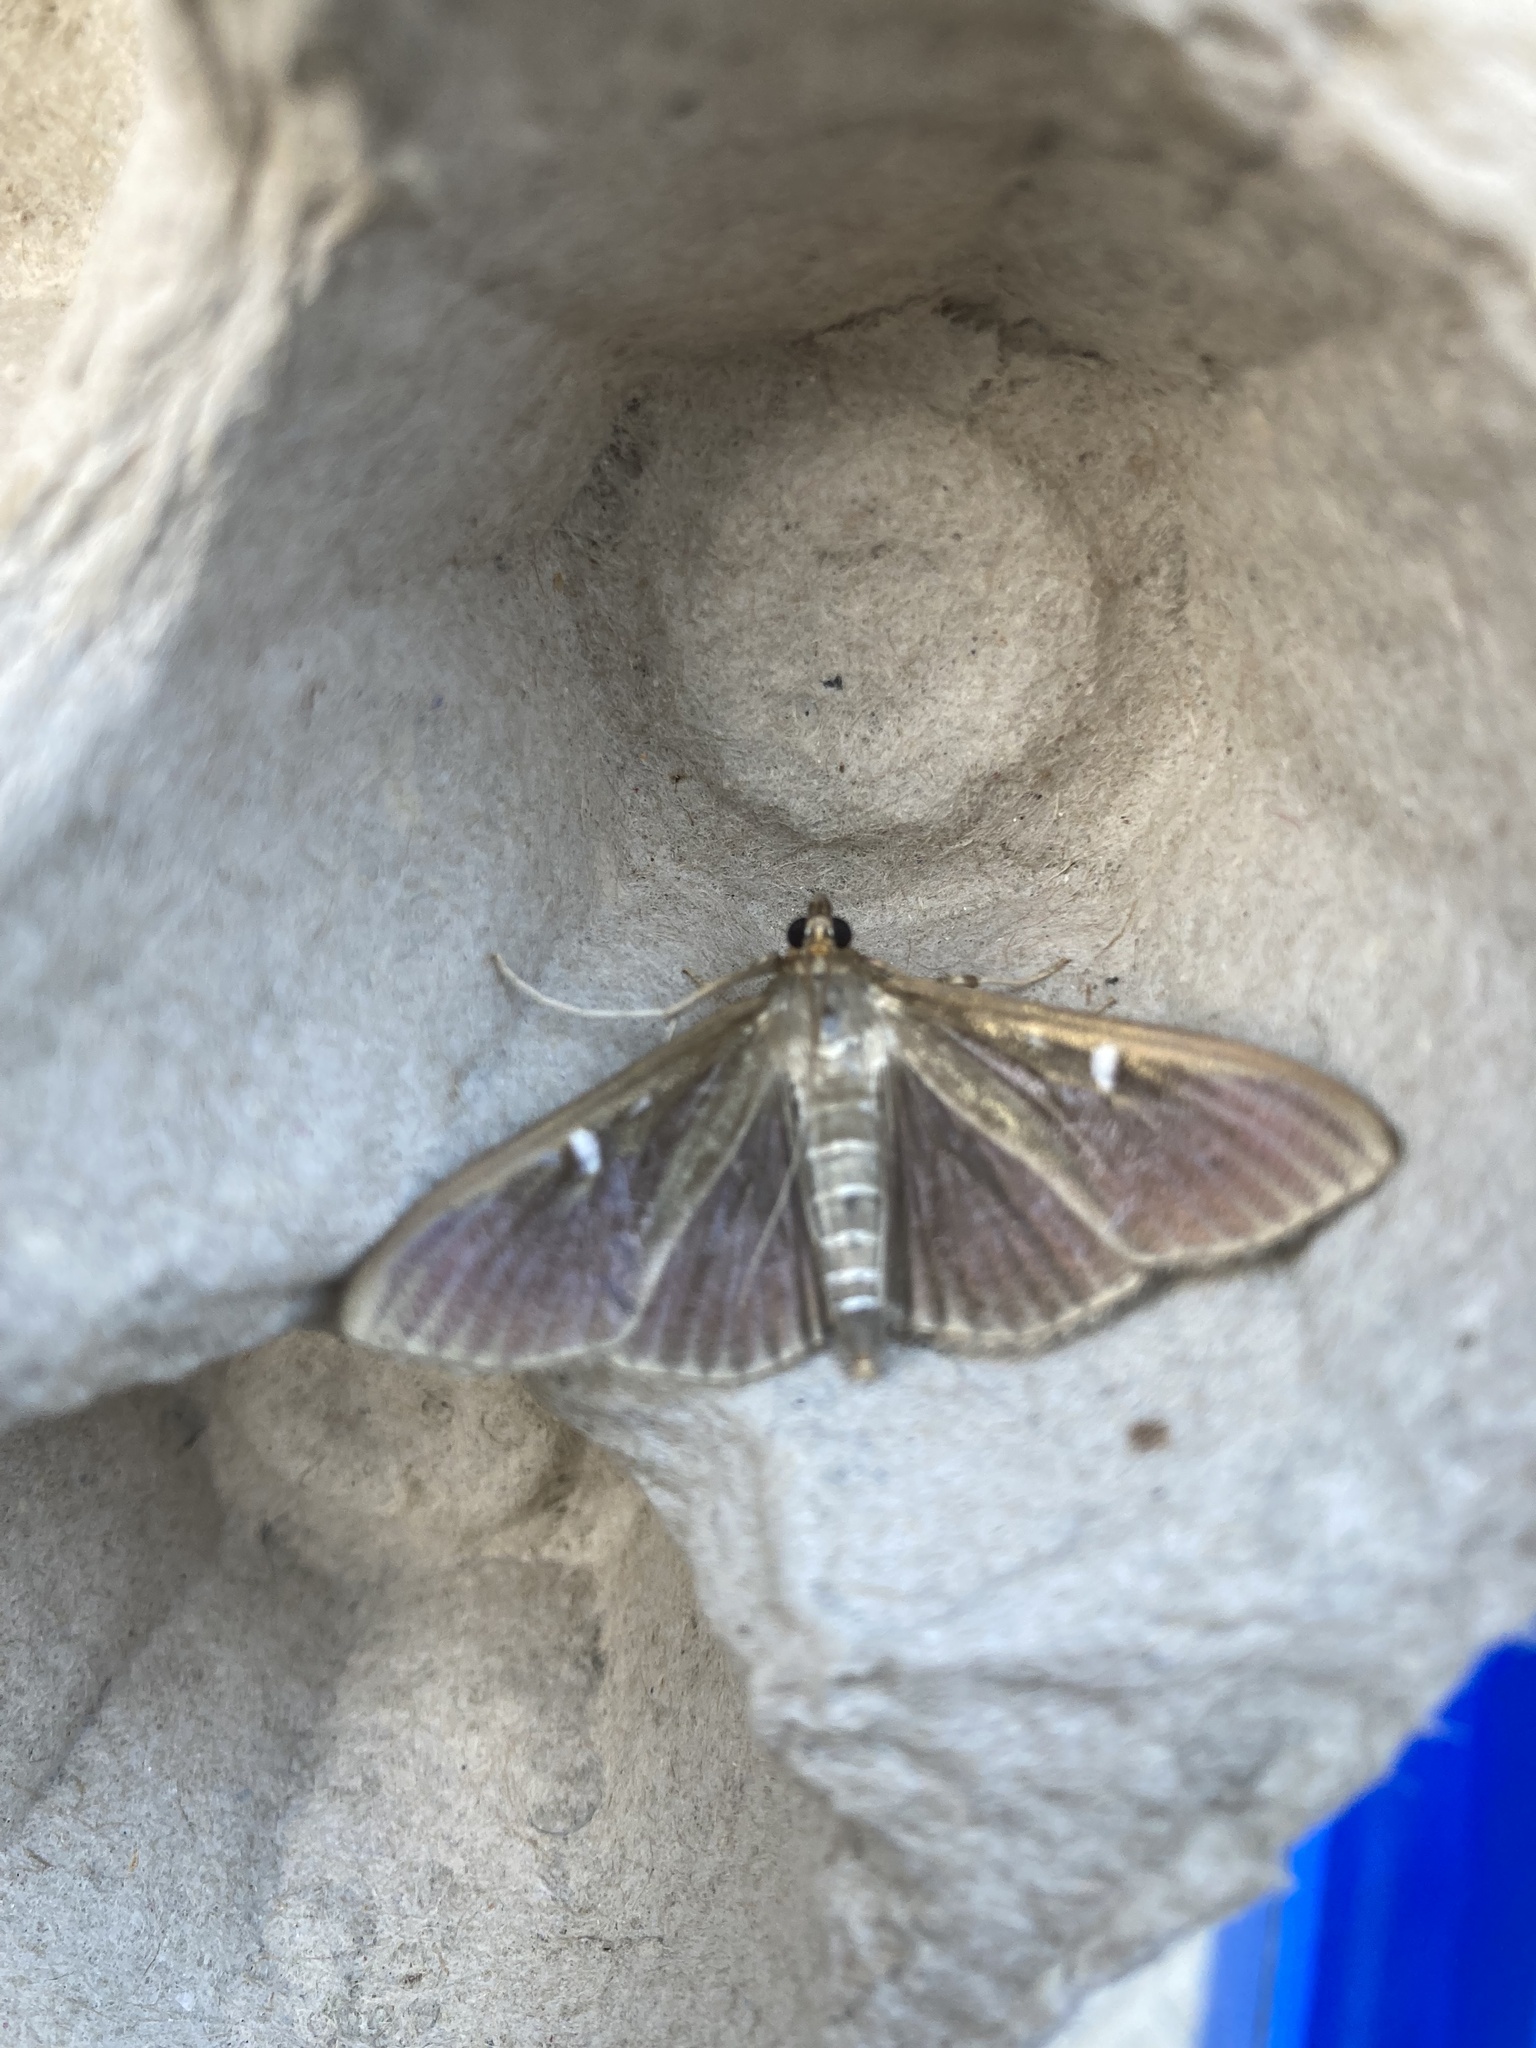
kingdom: Animalia
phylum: Arthropoda
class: Insecta
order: Lepidoptera
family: Crambidae
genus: Cydalima
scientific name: Cydalima perspectalis
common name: Box tree moth
